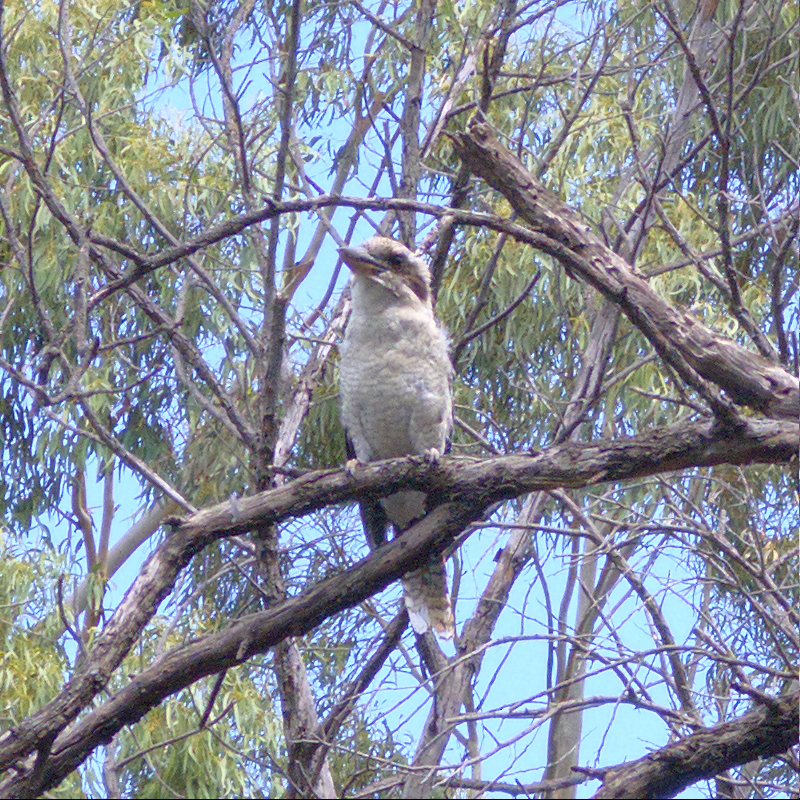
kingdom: Animalia
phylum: Chordata
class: Aves
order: Coraciiformes
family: Alcedinidae
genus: Dacelo
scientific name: Dacelo novaeguineae
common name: Laughing kookaburra
